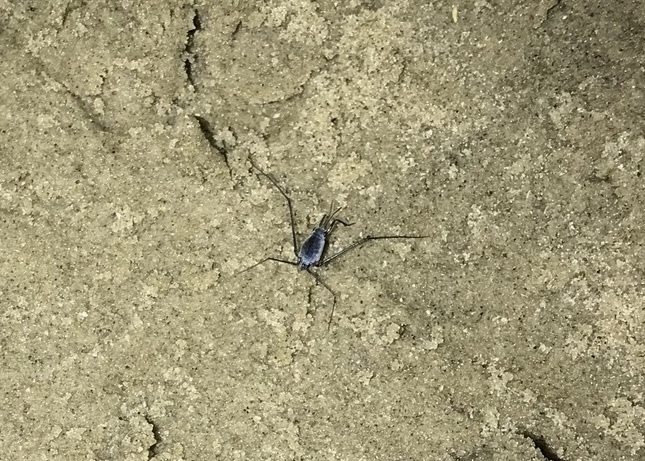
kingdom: Animalia
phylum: Arthropoda
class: Insecta
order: Hemiptera
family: Gerridae
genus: Halobates
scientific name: Halobates micans
